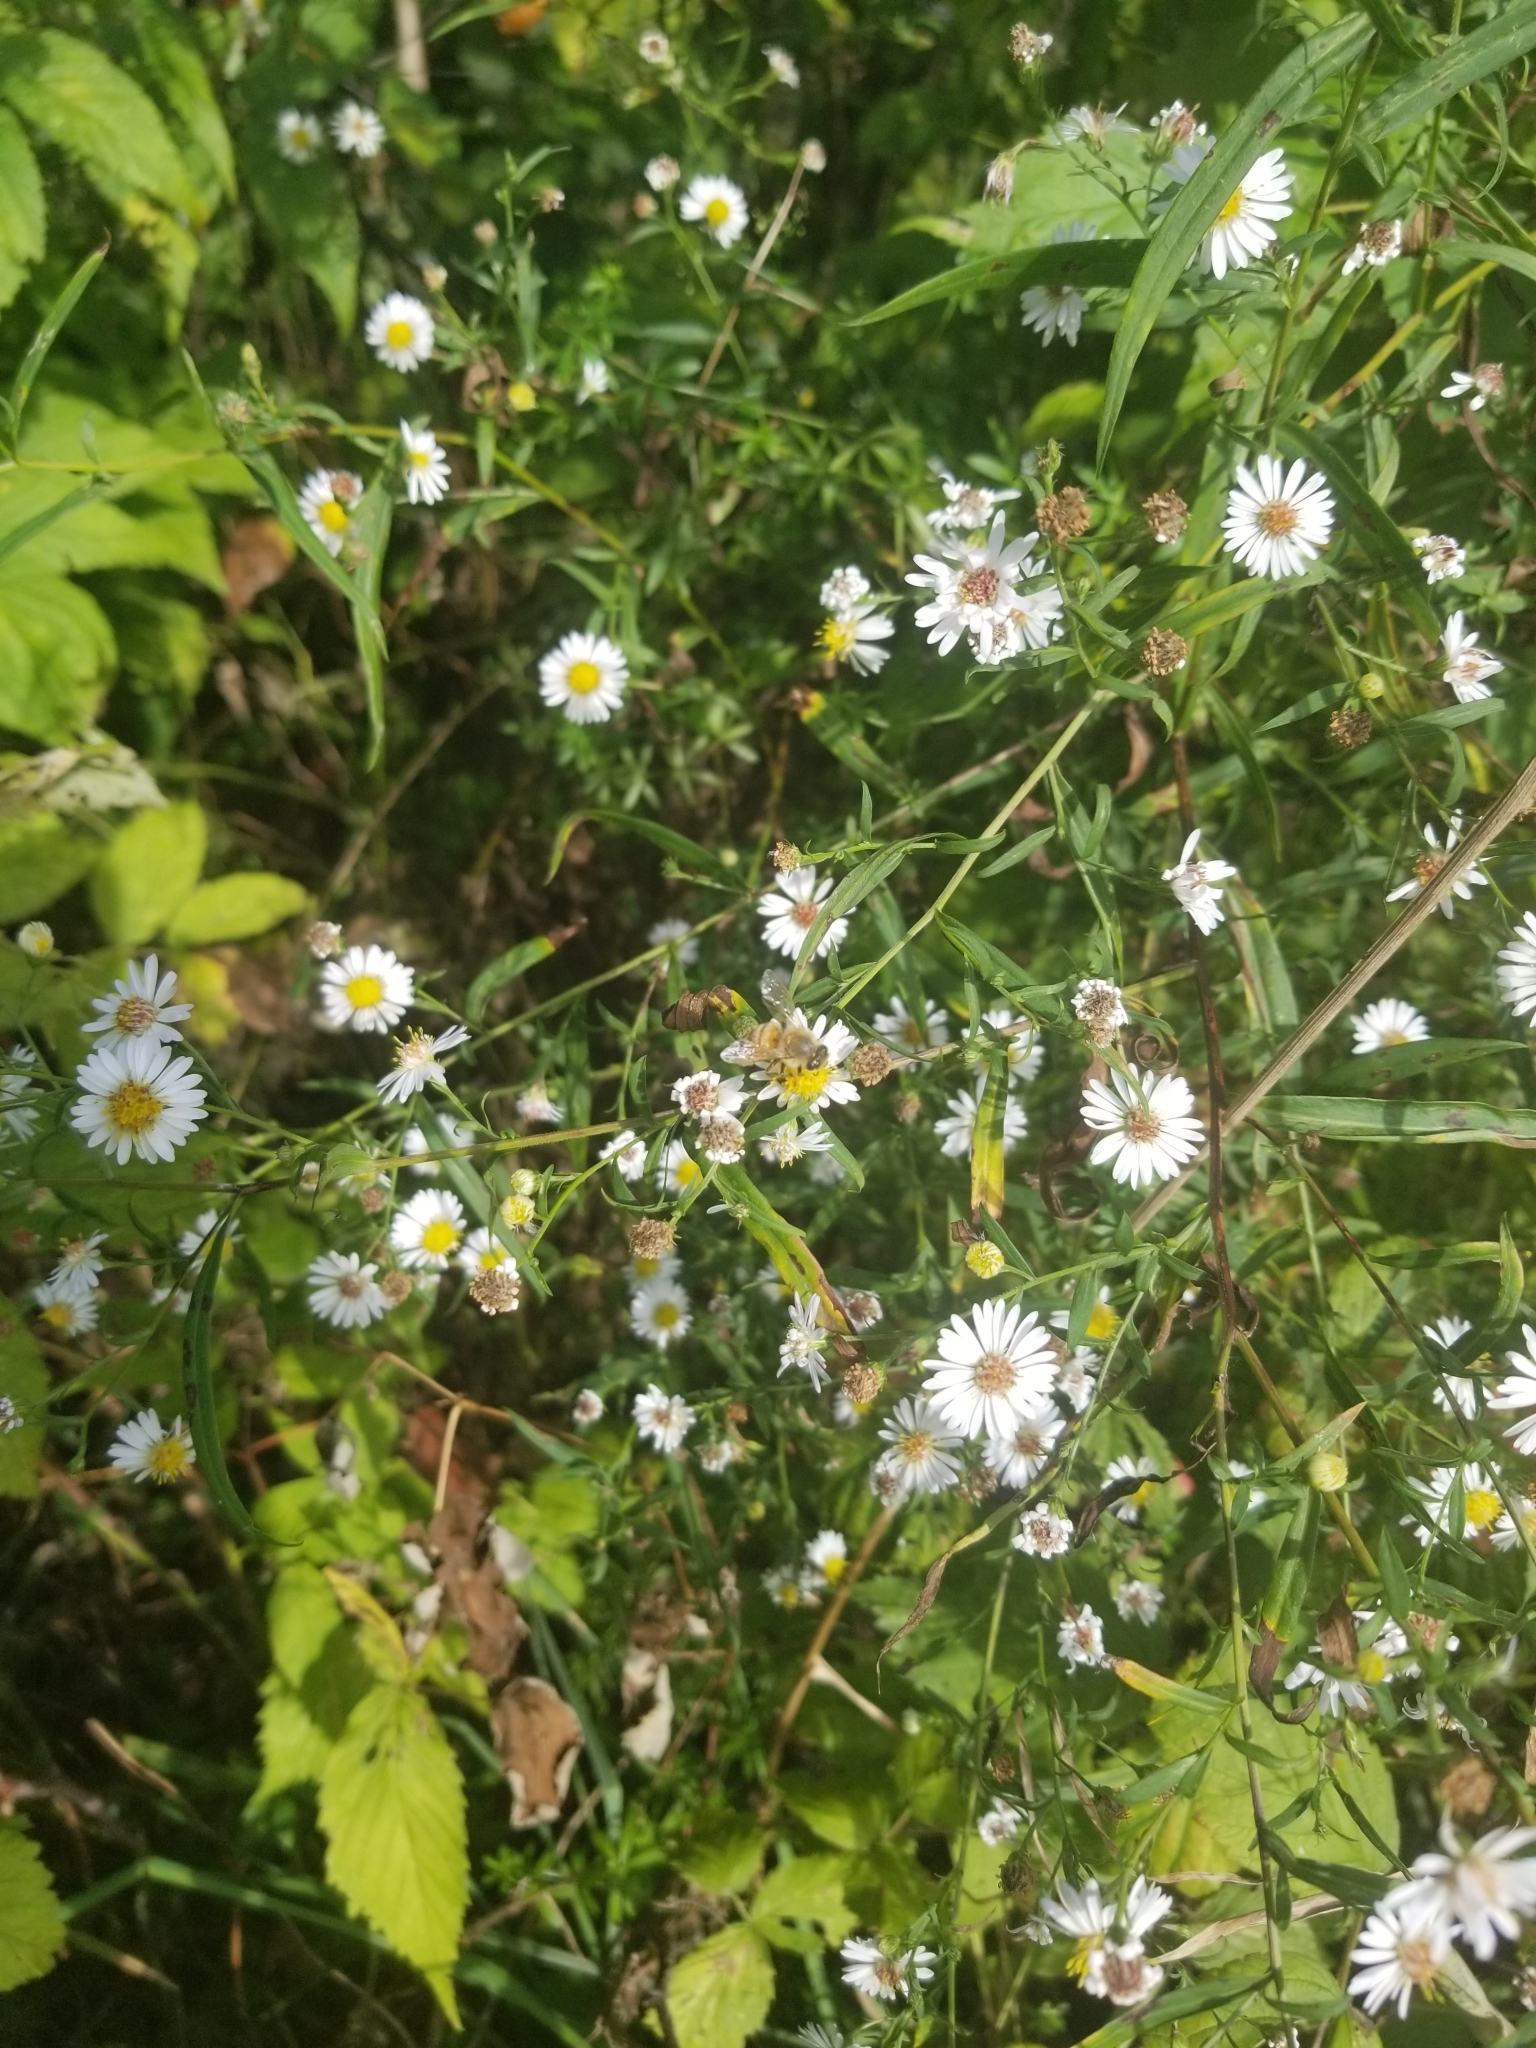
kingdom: Animalia
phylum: Arthropoda
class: Insecta
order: Hymenoptera
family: Apidae
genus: Apis
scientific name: Apis mellifera
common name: Honey bee
